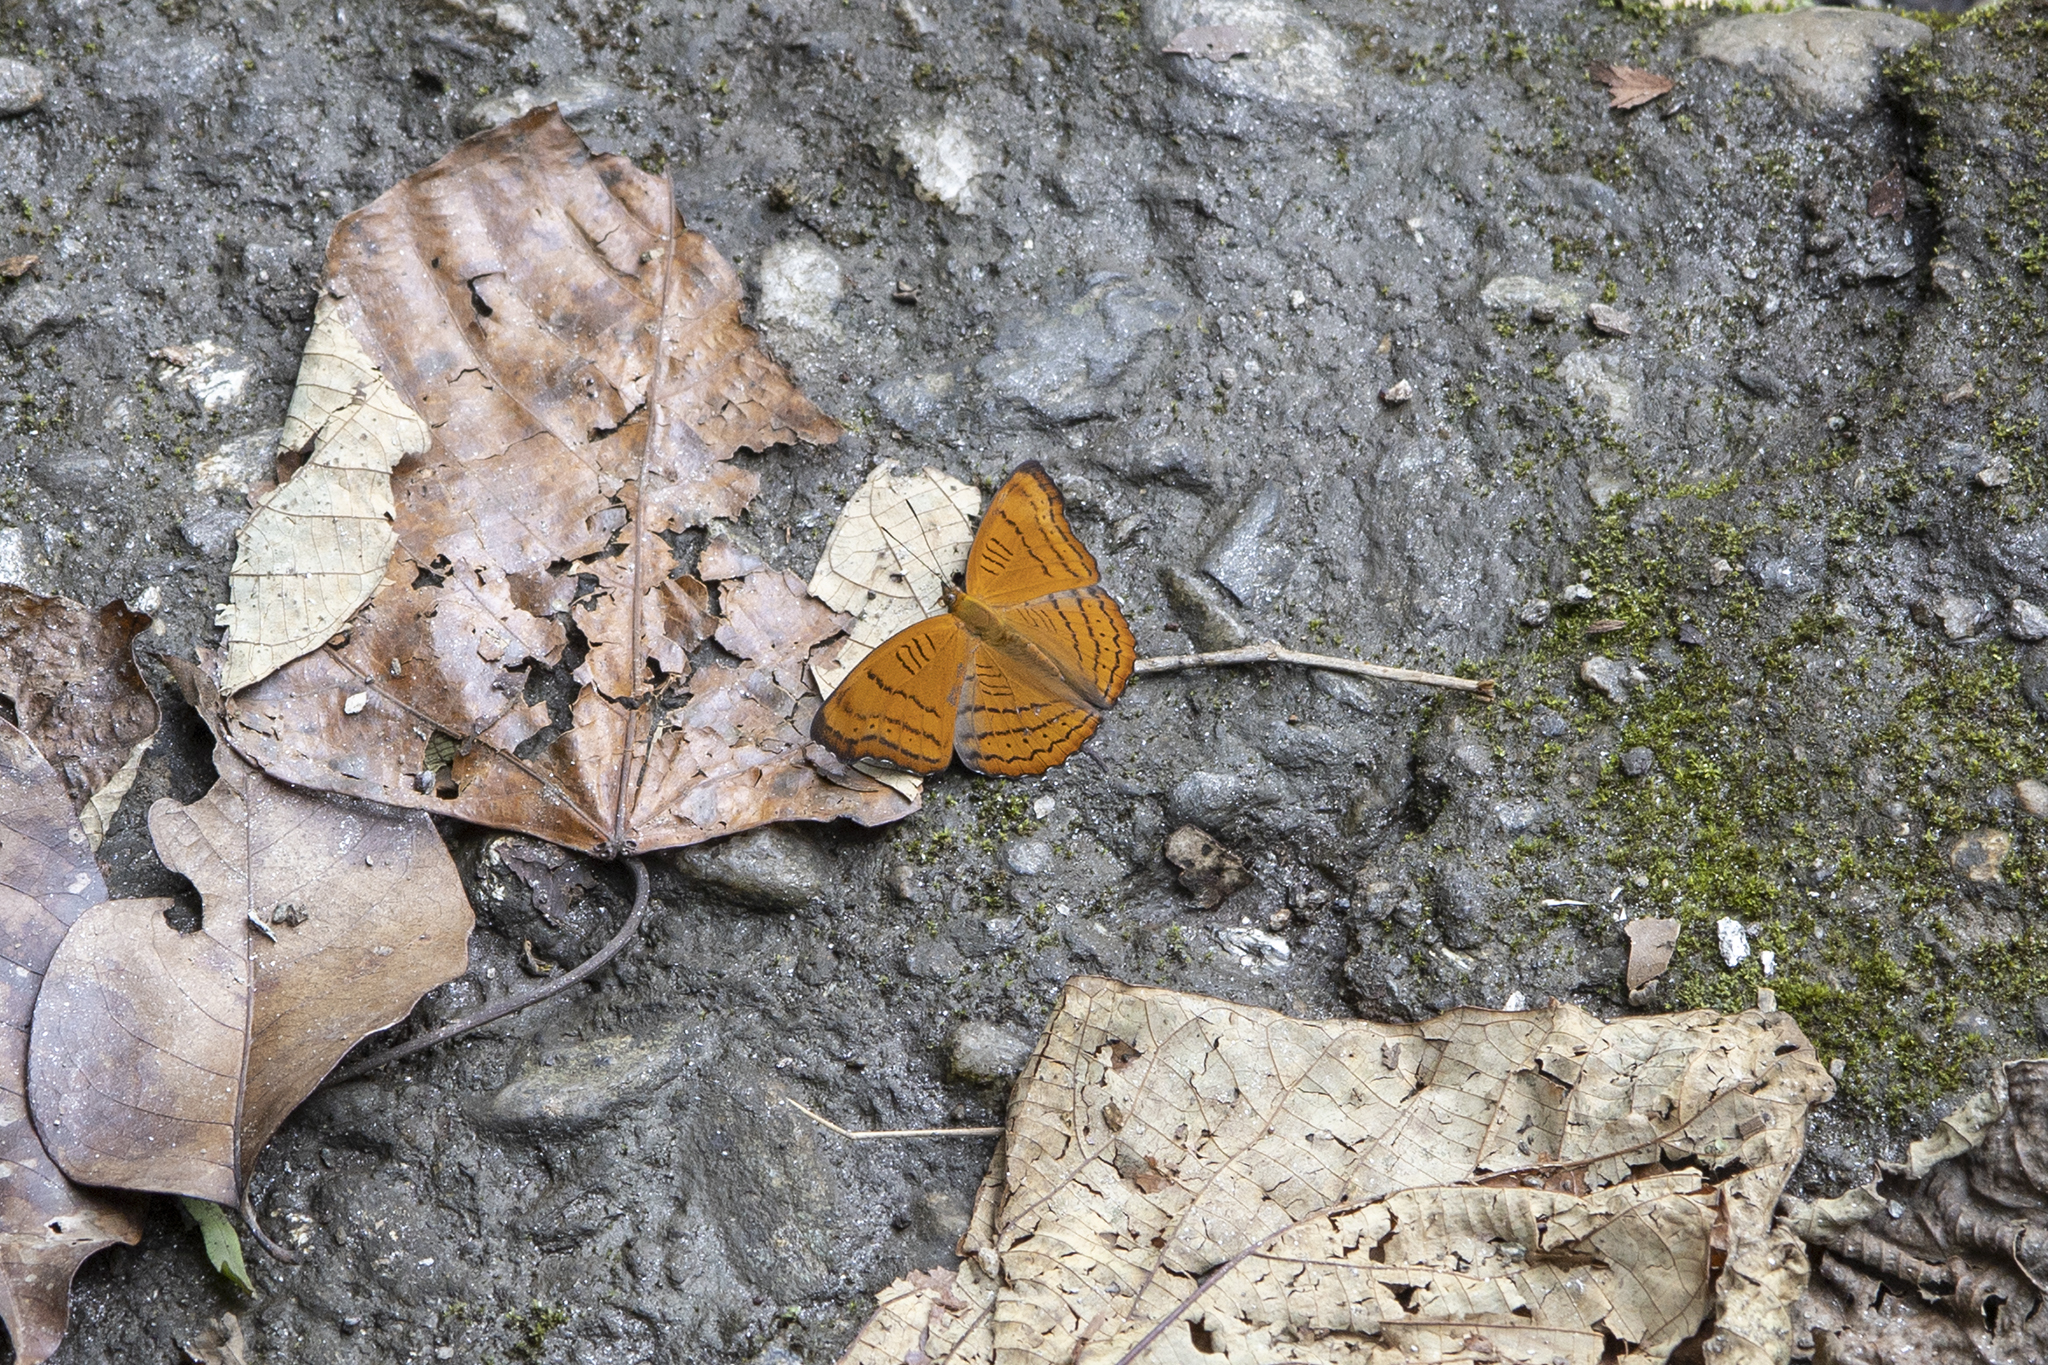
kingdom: Animalia
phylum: Arthropoda
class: Insecta
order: Lepidoptera
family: Nymphalidae
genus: Pseudergolis
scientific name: Pseudergolis wedah
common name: Tabby
